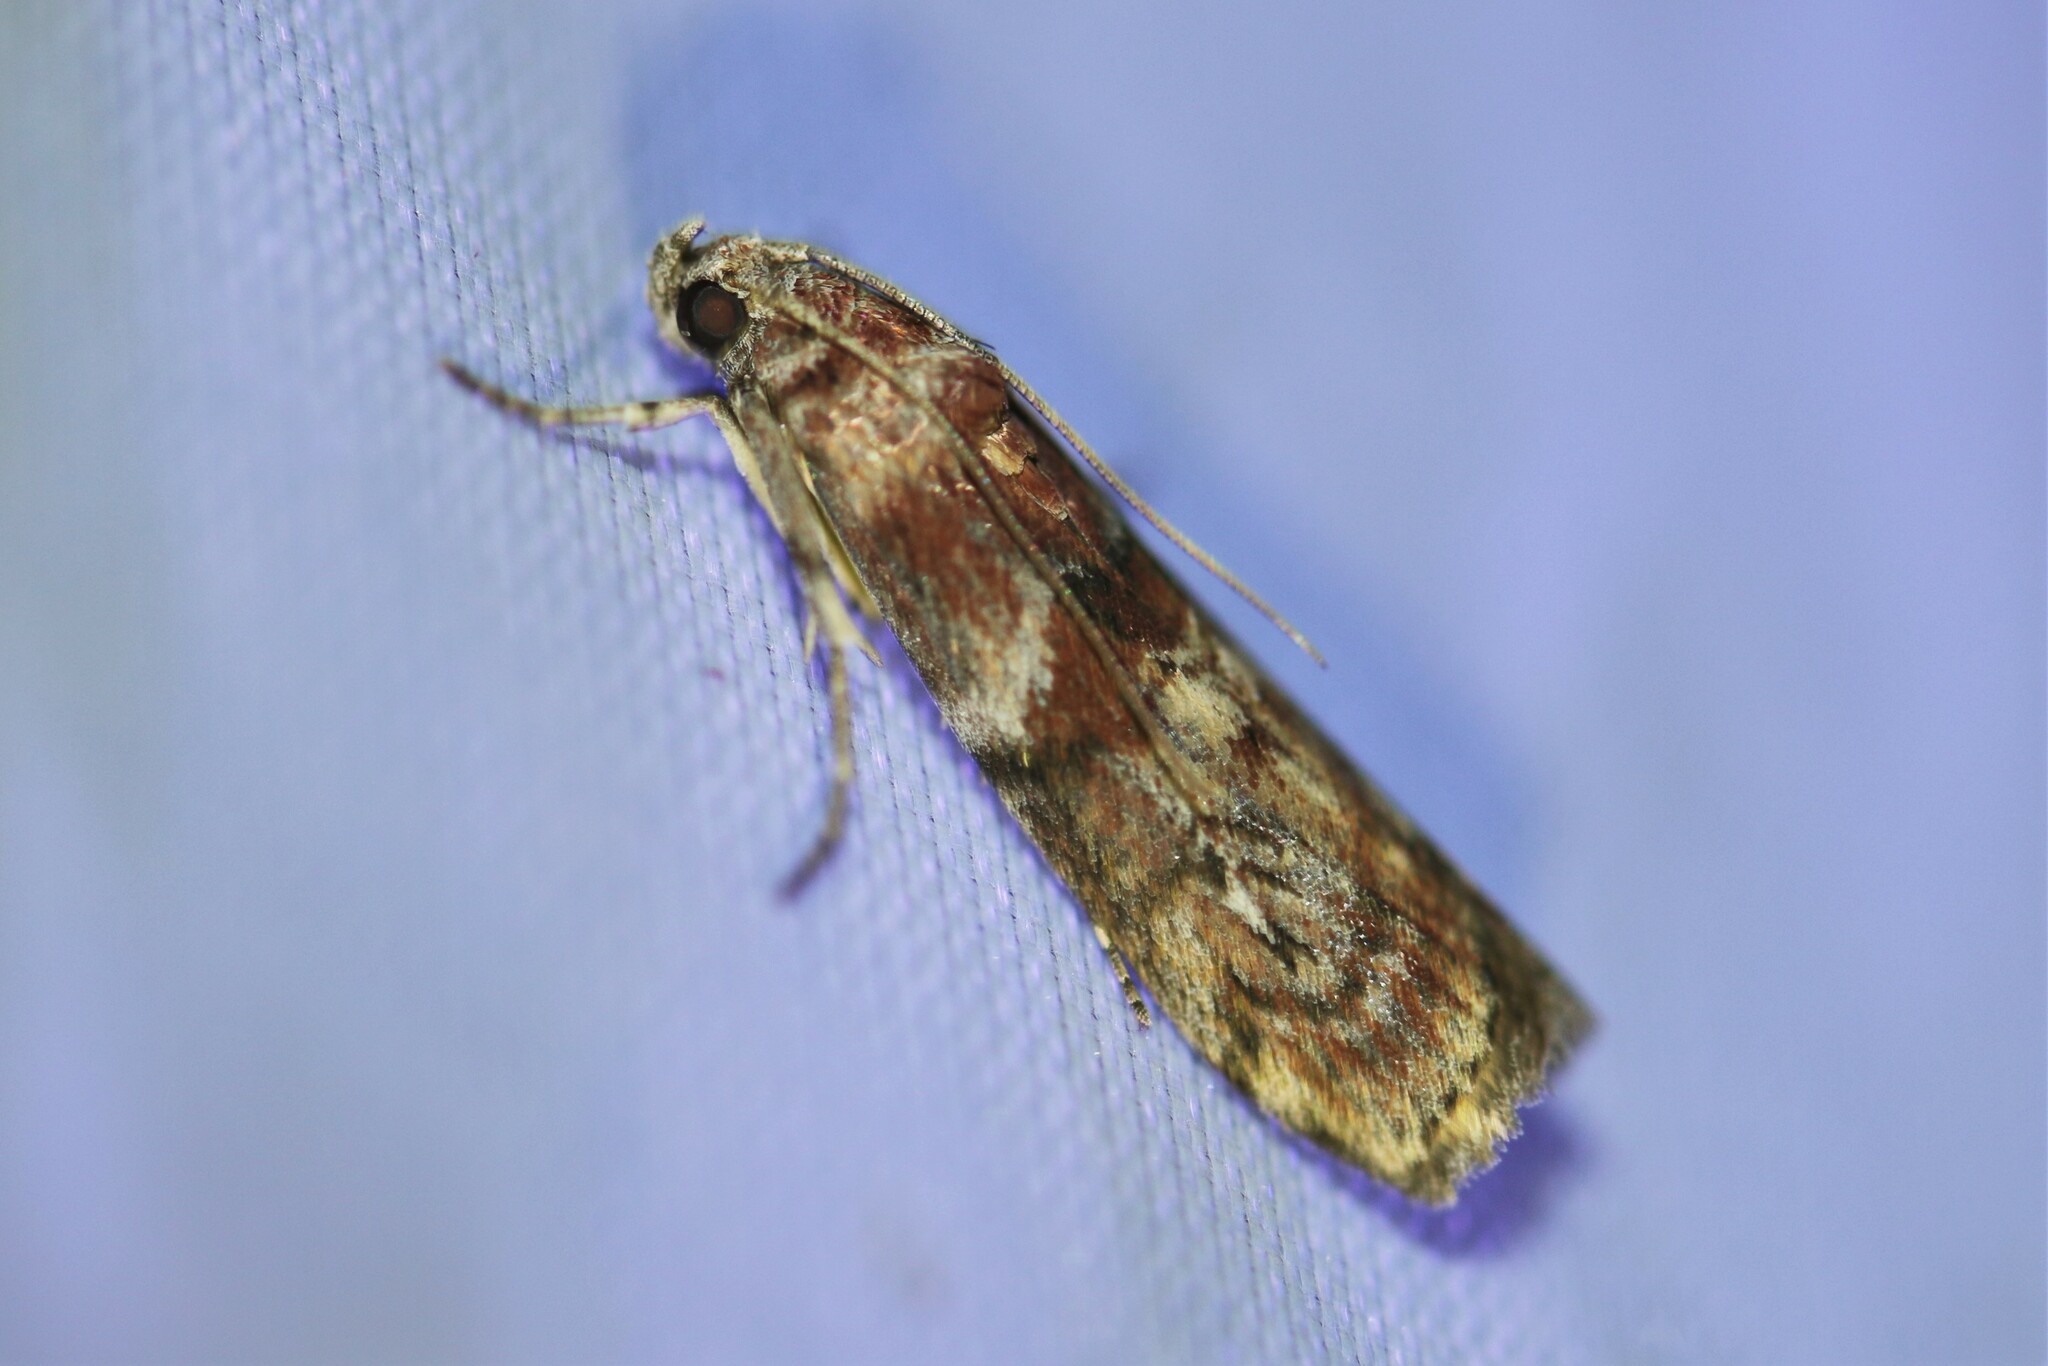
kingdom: Animalia
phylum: Arthropoda
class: Insecta
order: Lepidoptera
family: Pyralidae
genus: Phycita
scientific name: Phycita roborella
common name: Dotted oak knot-horn
